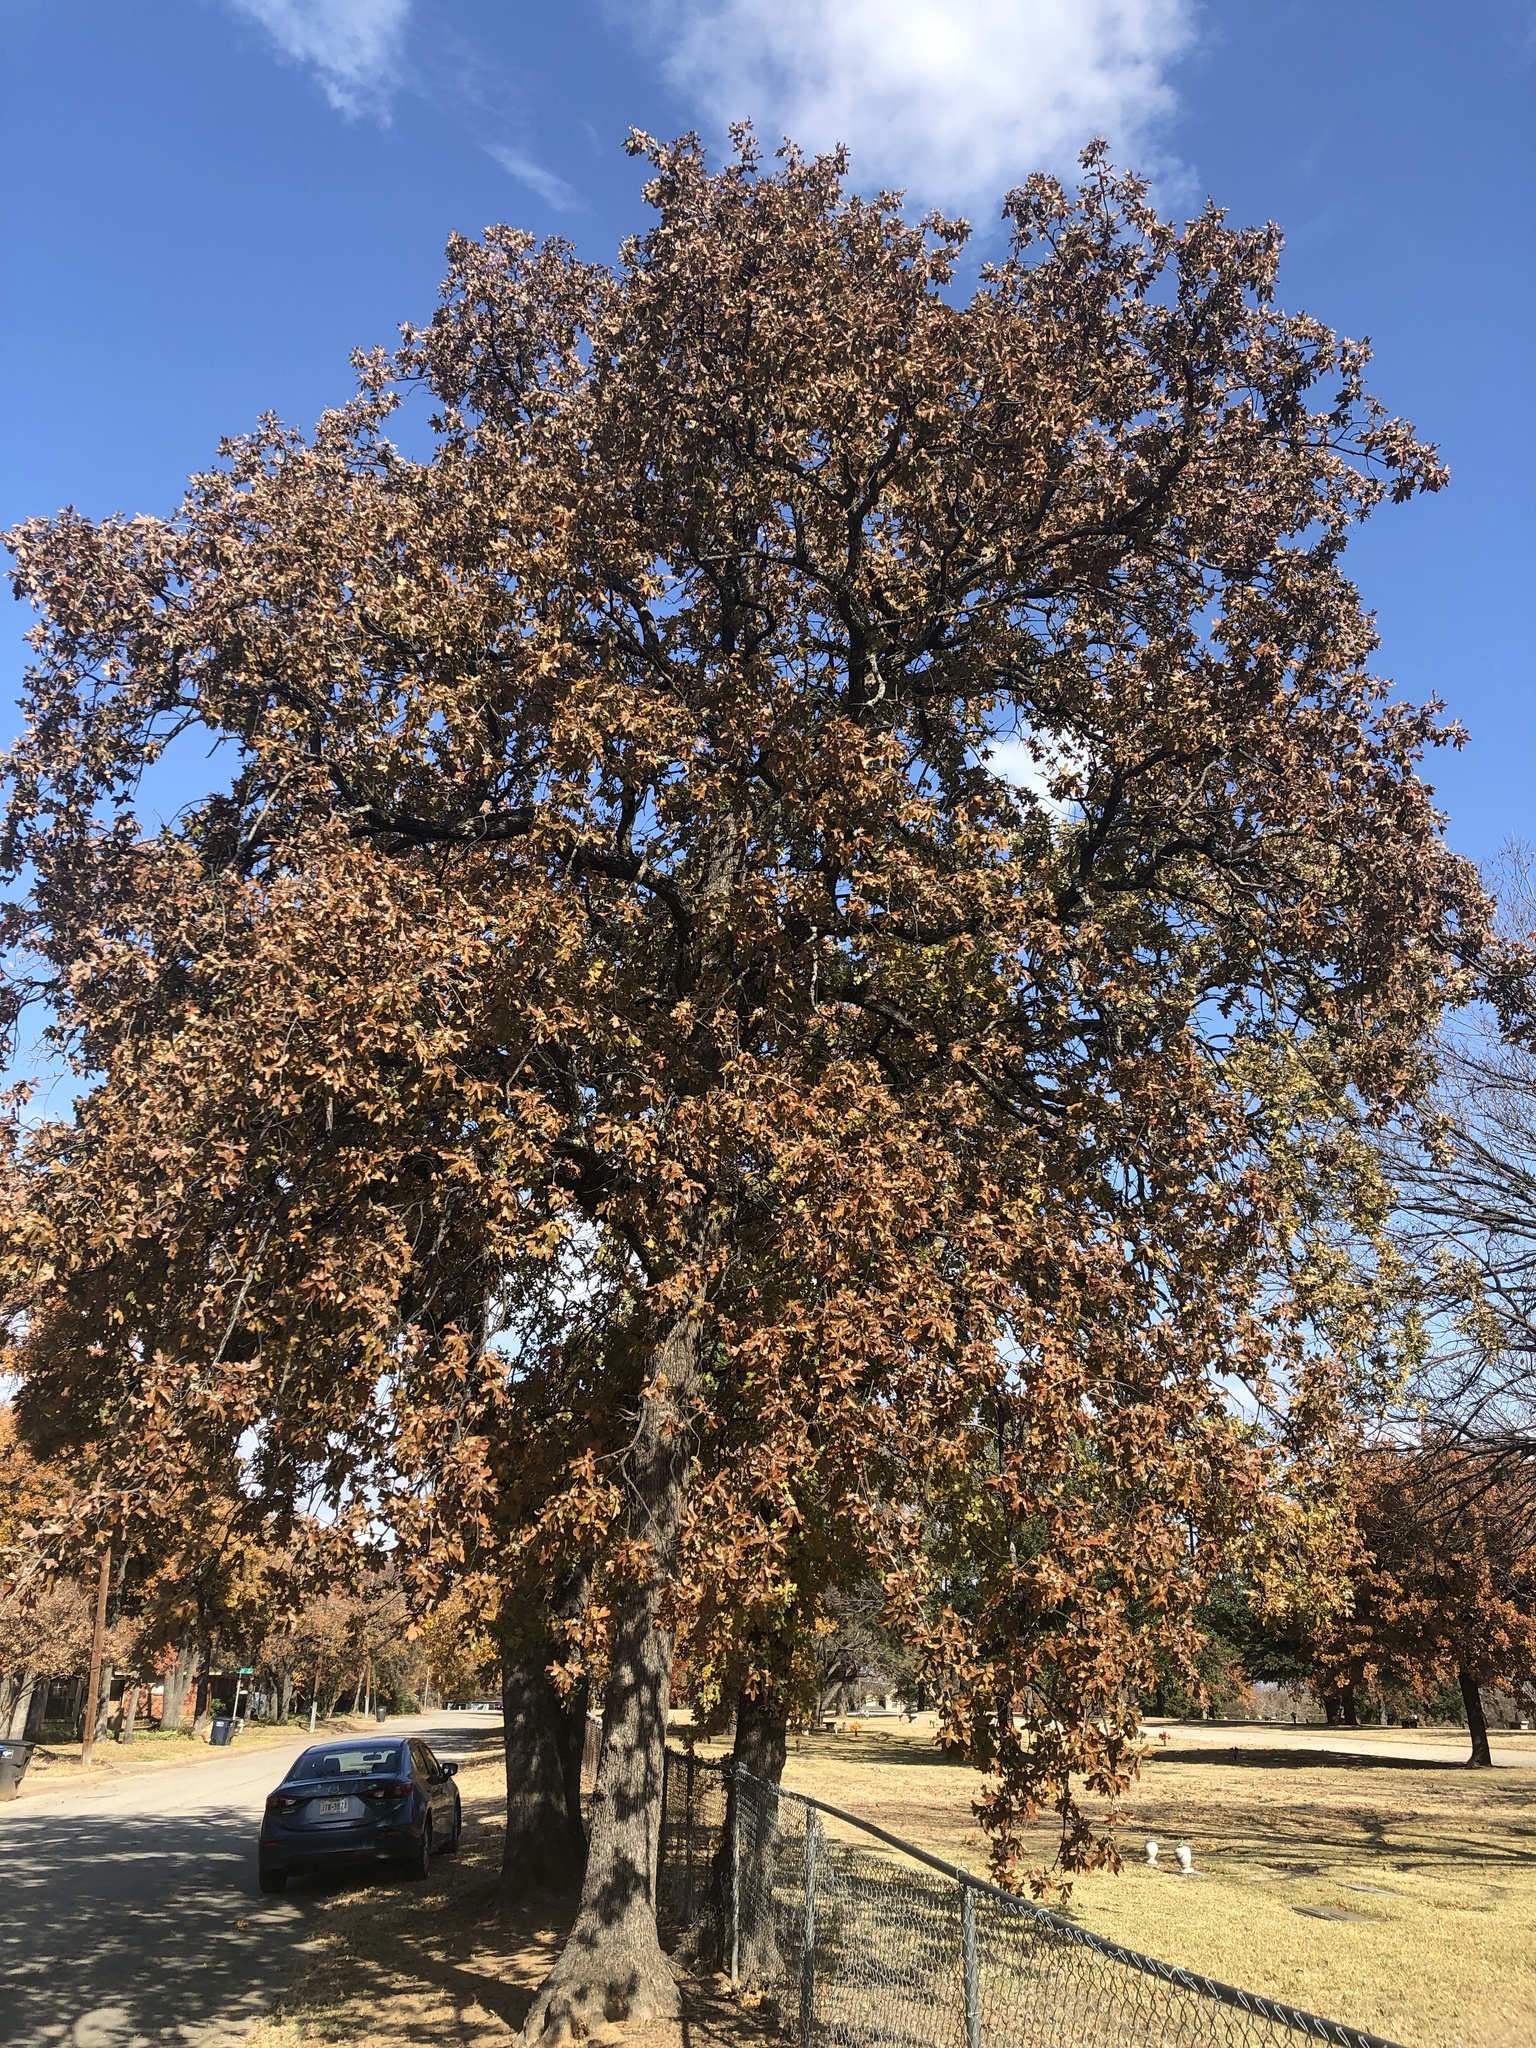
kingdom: Plantae
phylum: Tracheophyta
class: Magnoliopsida
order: Fagales
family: Fagaceae
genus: Quercus
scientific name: Quercus stellata
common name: Post oak
